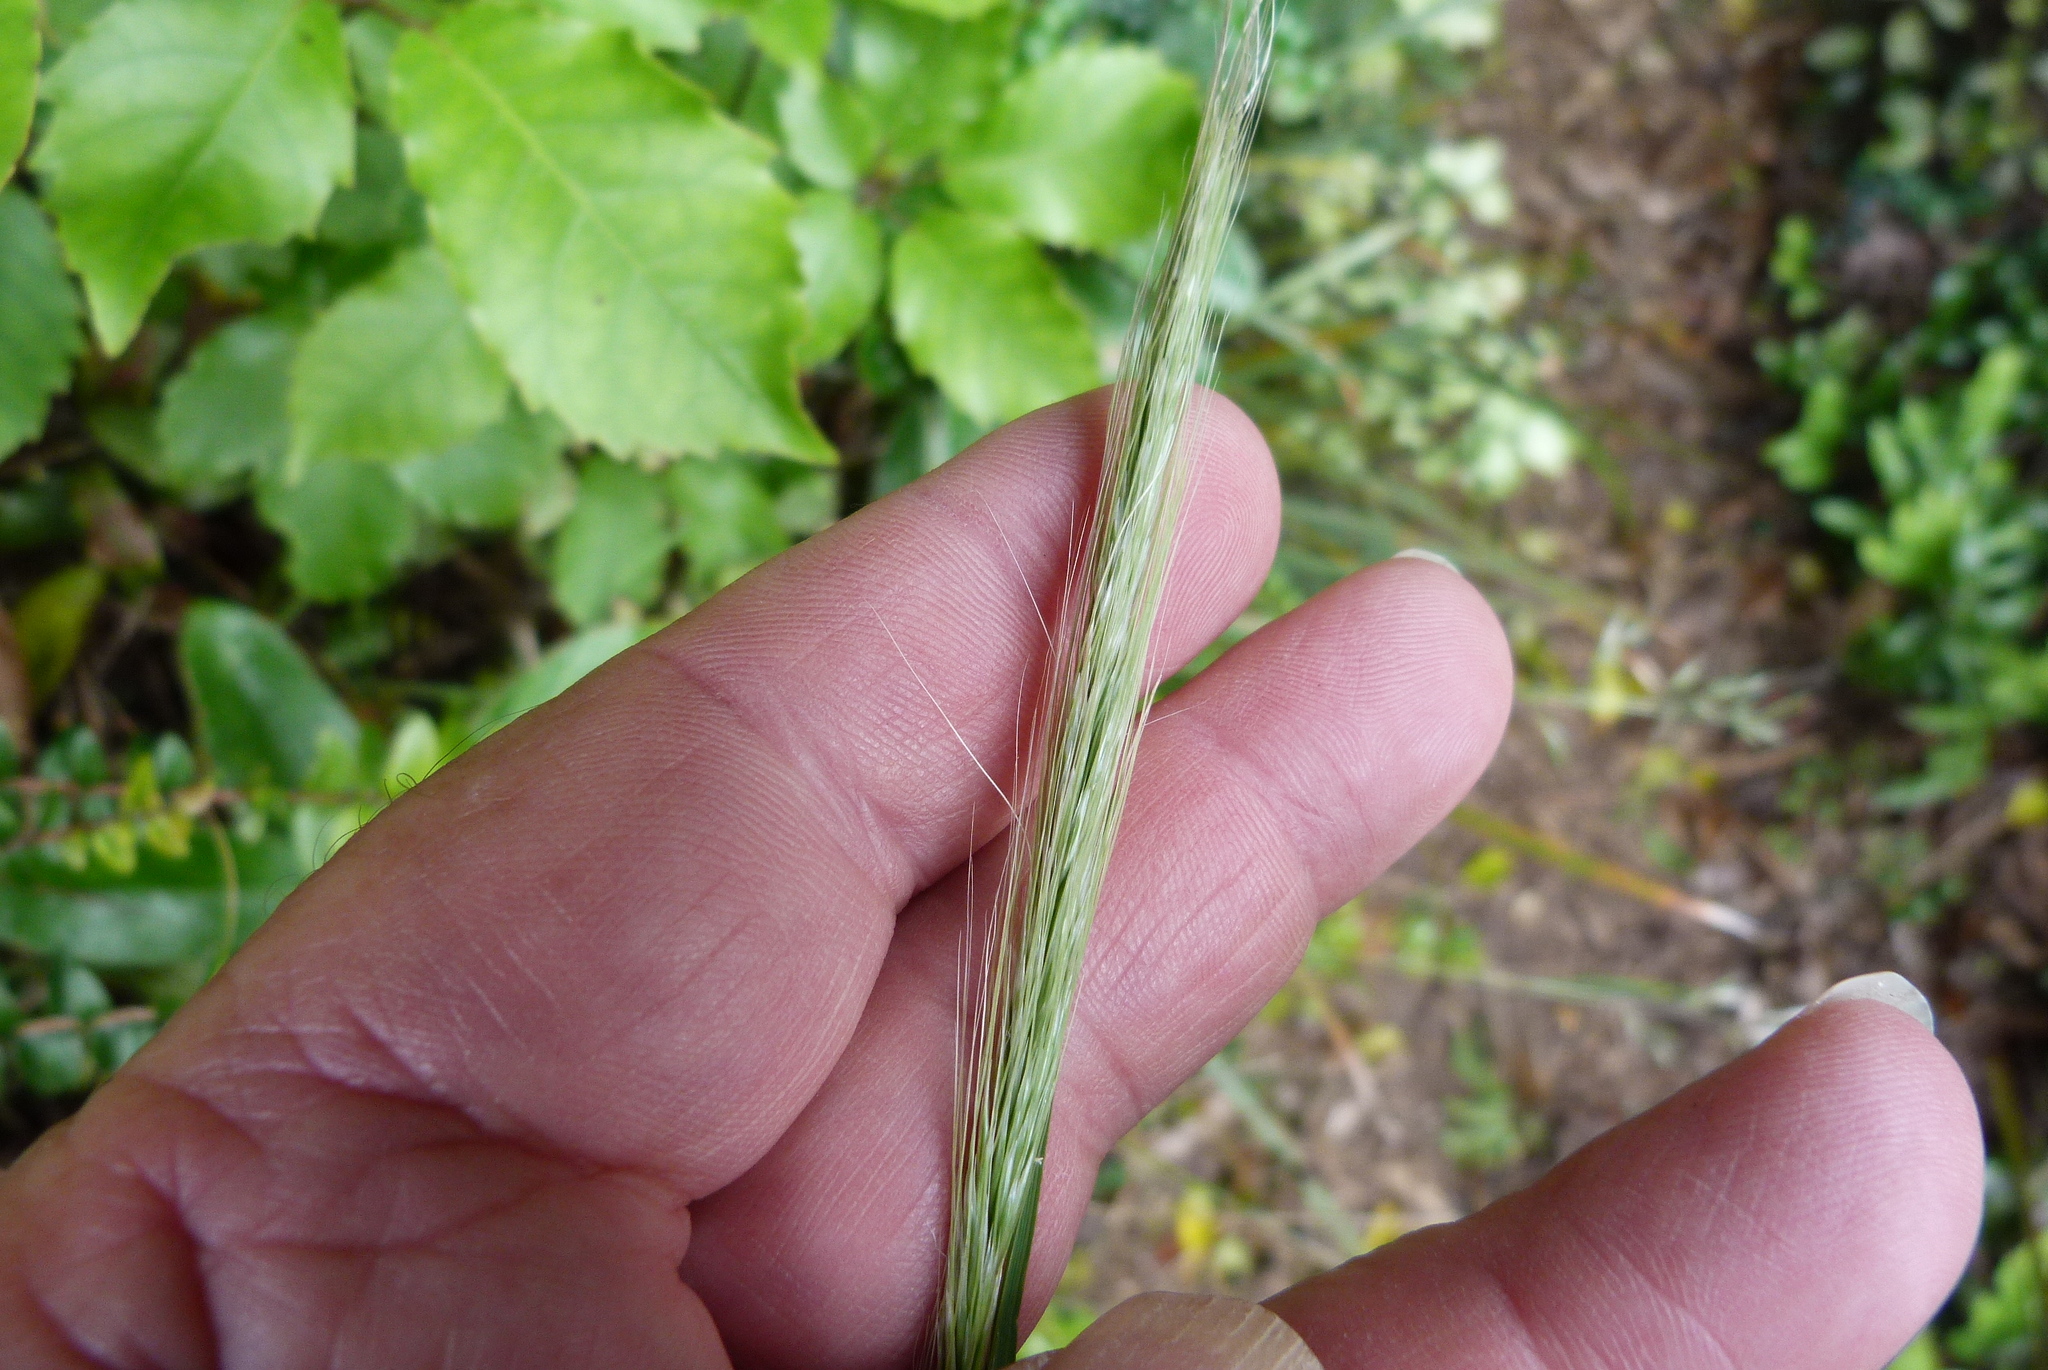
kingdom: Plantae
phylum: Tracheophyta
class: Liliopsida
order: Poales
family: Poaceae
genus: Dichelachne
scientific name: Dichelachne crinita
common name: Clovenfoot plumegrass
